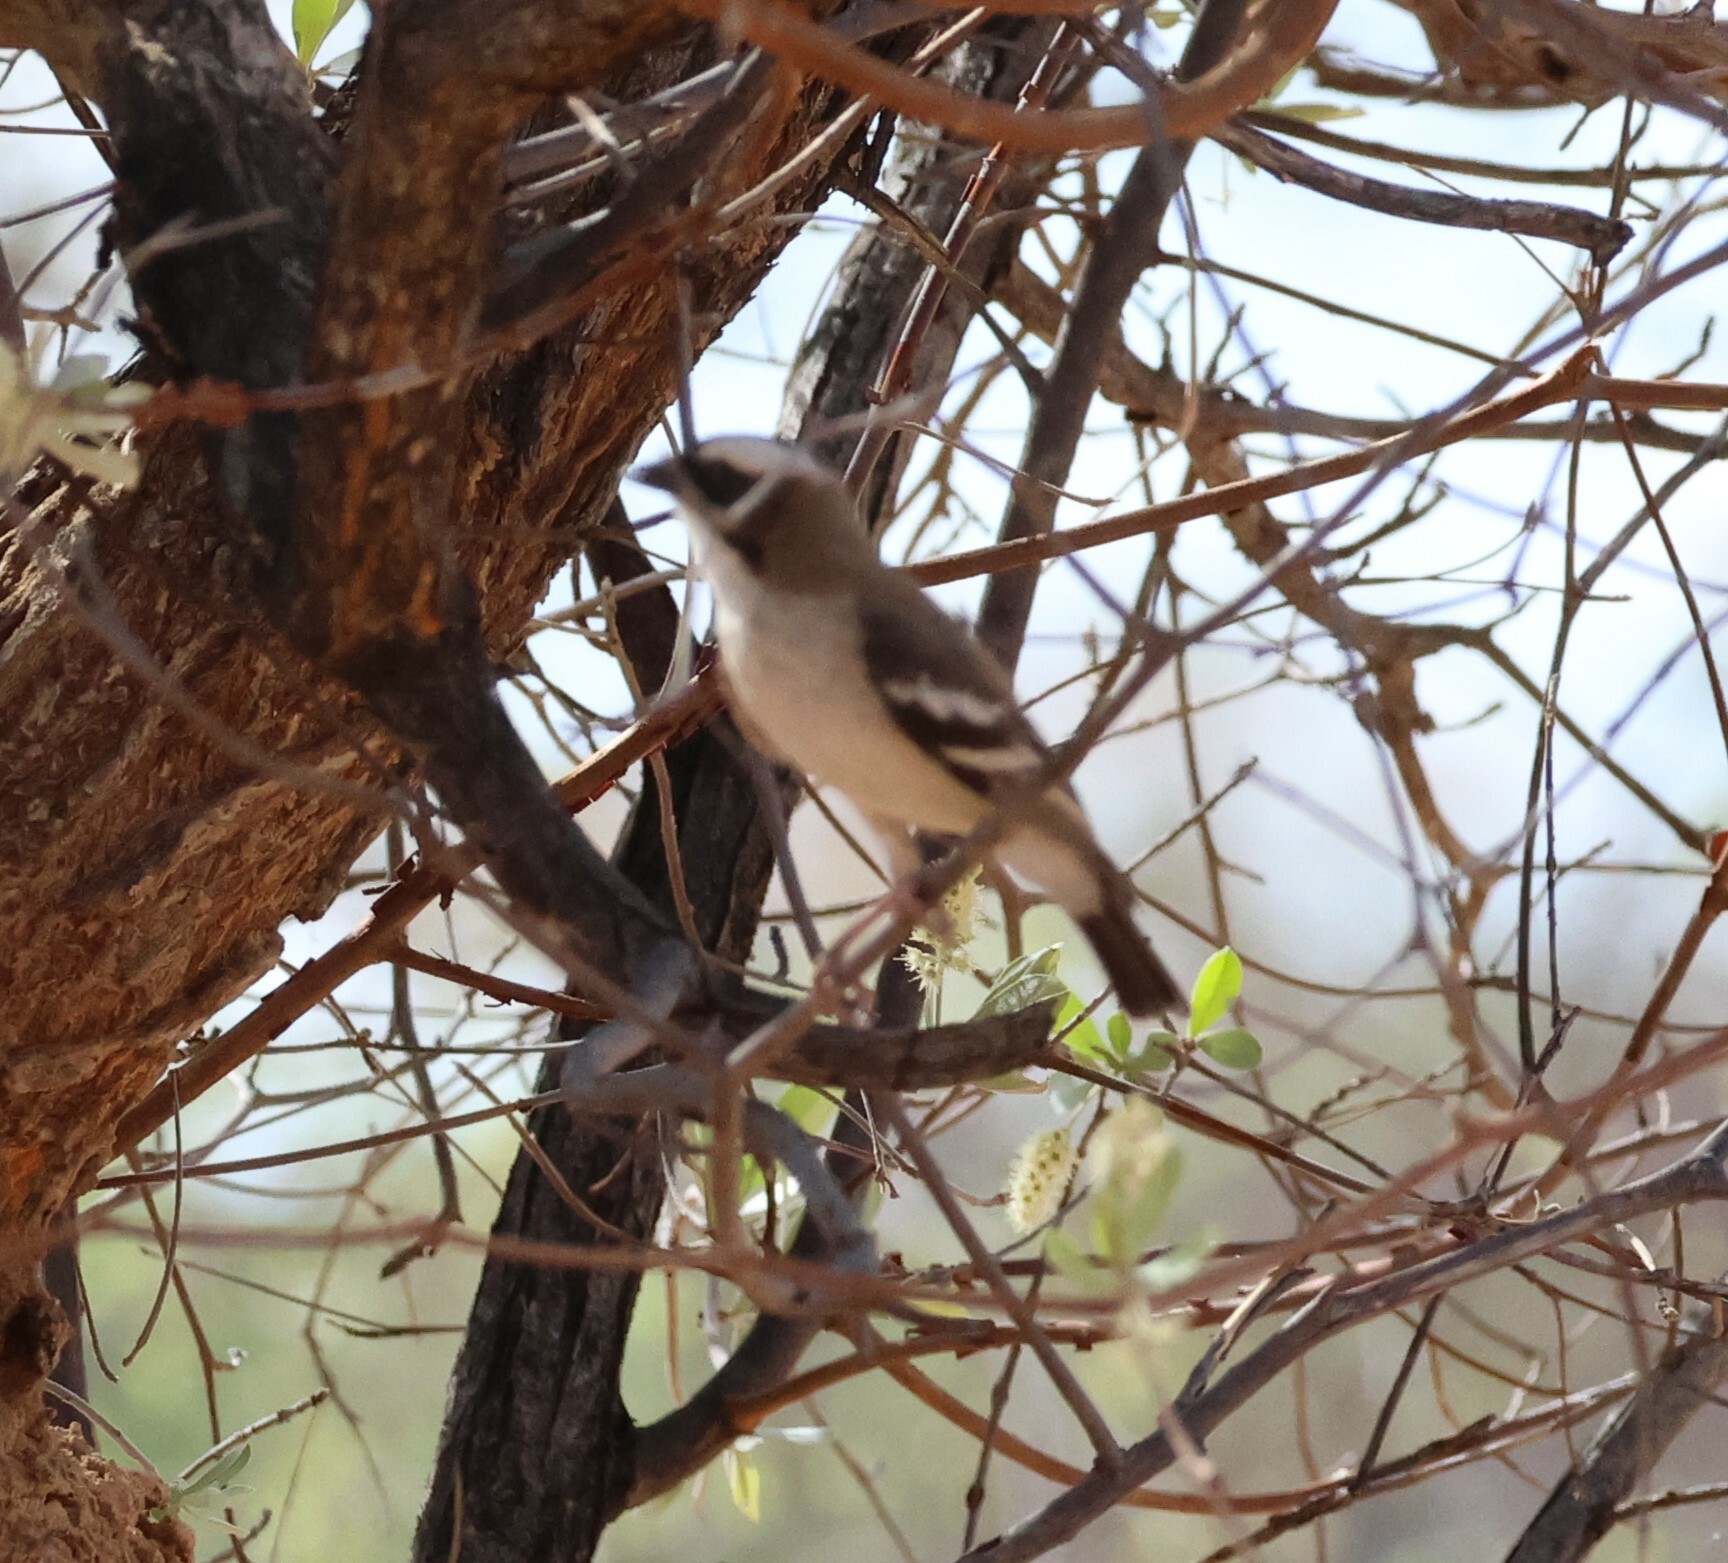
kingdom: Animalia
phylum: Chordata
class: Aves
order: Passeriformes
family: Passeridae
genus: Plocepasser
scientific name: Plocepasser mahali
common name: White-browed sparrow-weaver
